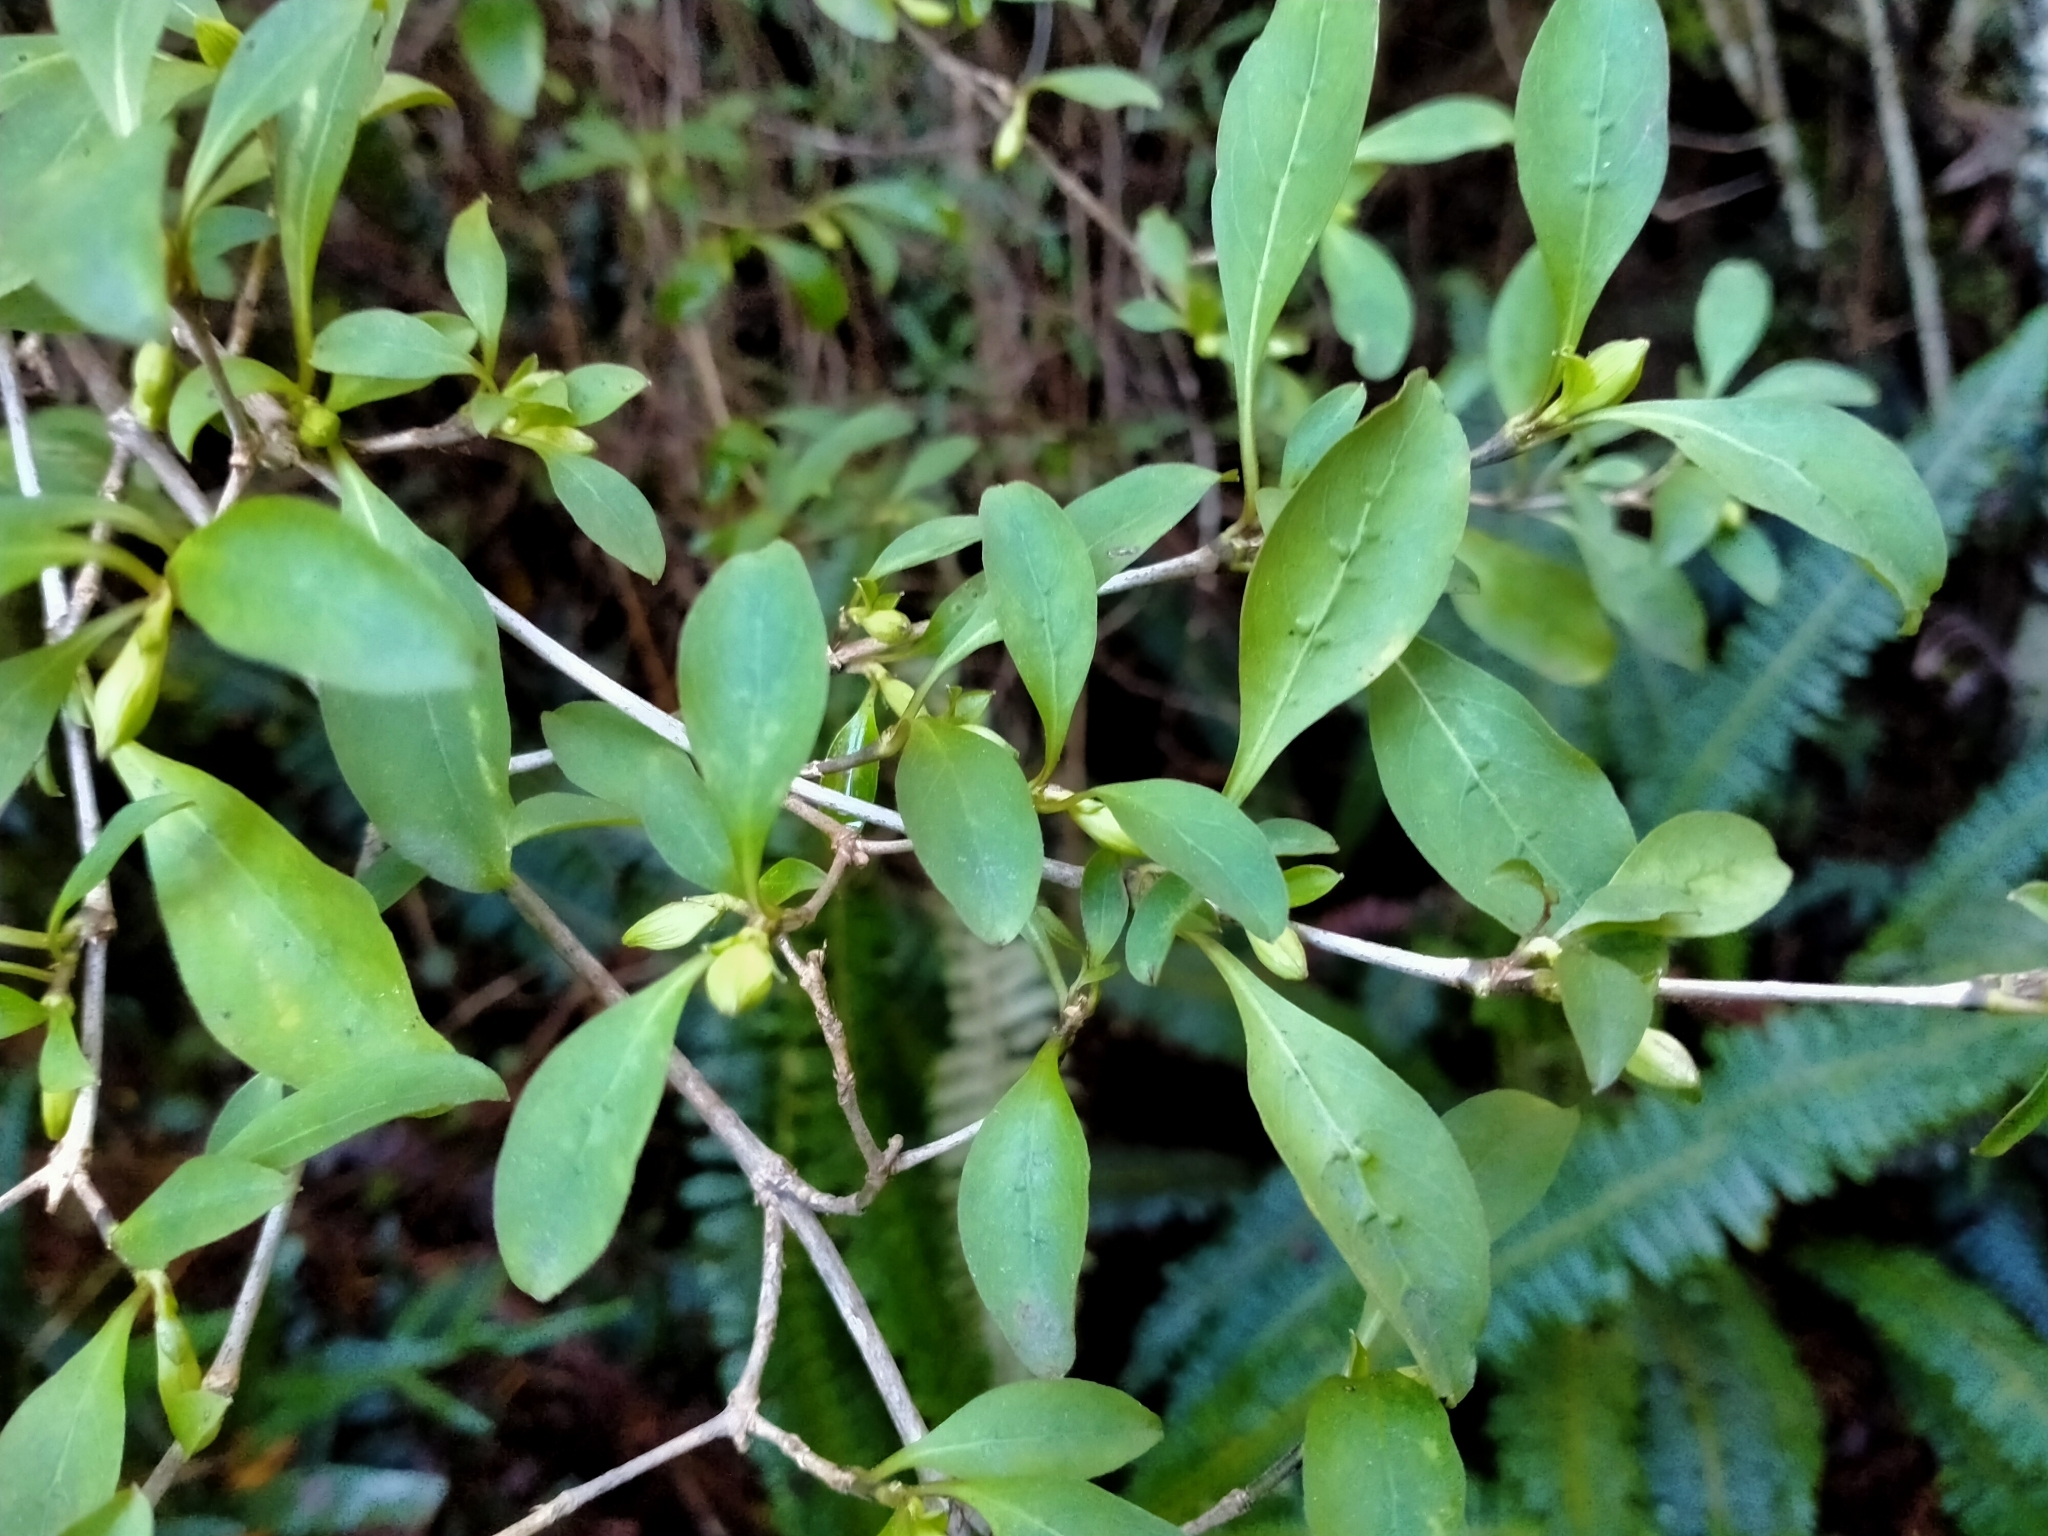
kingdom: Plantae
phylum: Tracheophyta
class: Magnoliopsida
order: Gentianales
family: Rubiaceae
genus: Coprosma
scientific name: Coprosma foetidissima
